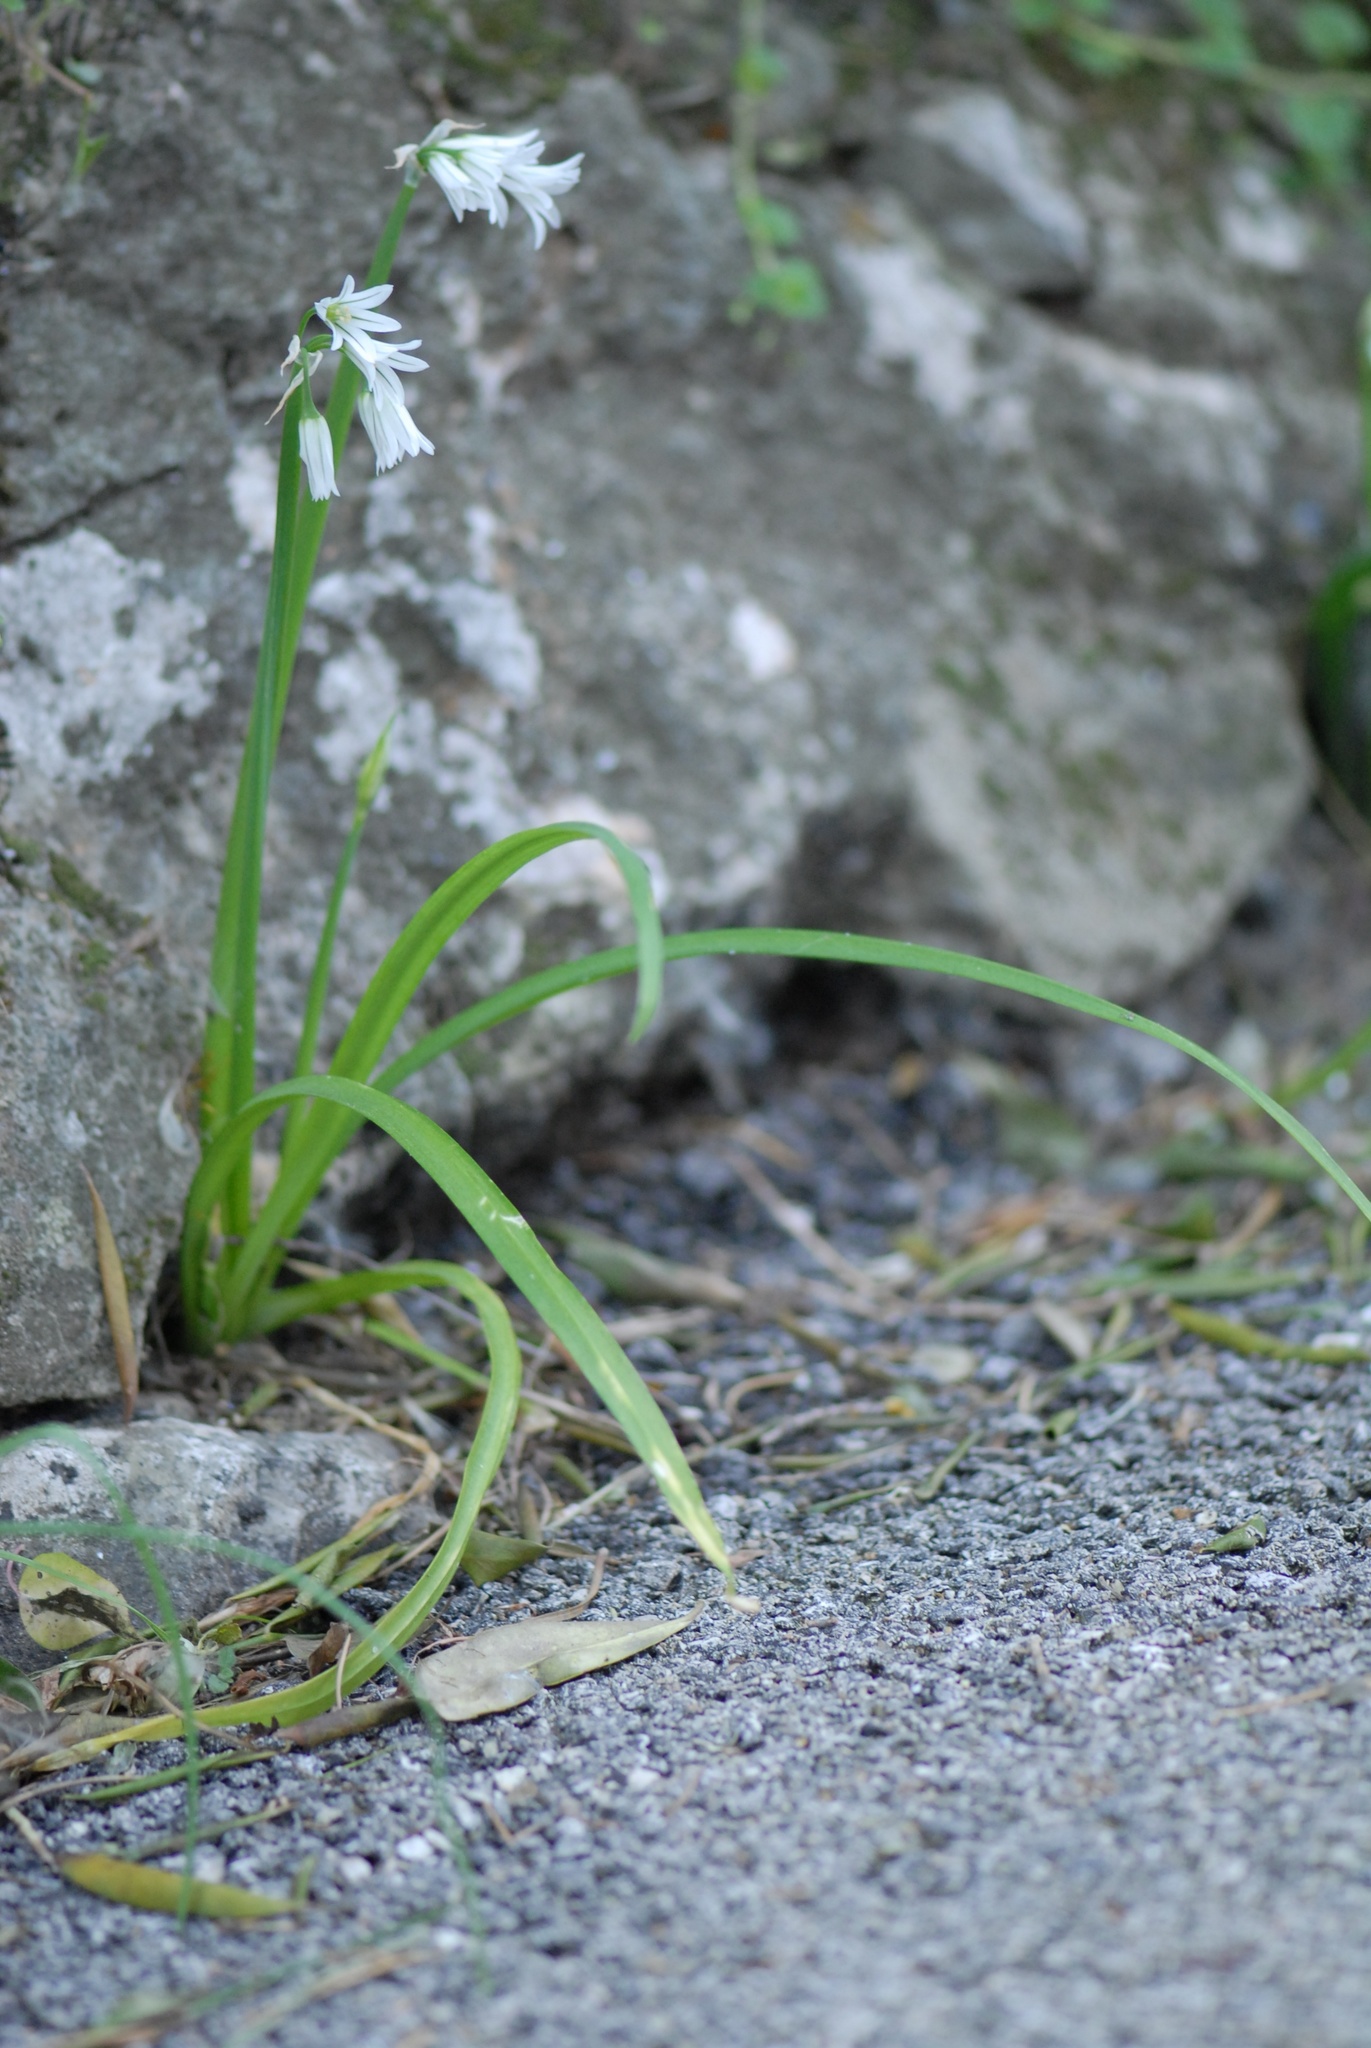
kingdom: Plantae
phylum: Tracheophyta
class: Liliopsida
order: Asparagales
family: Amaryllidaceae
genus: Allium
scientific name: Allium triquetrum
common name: Three-cornered garlic
